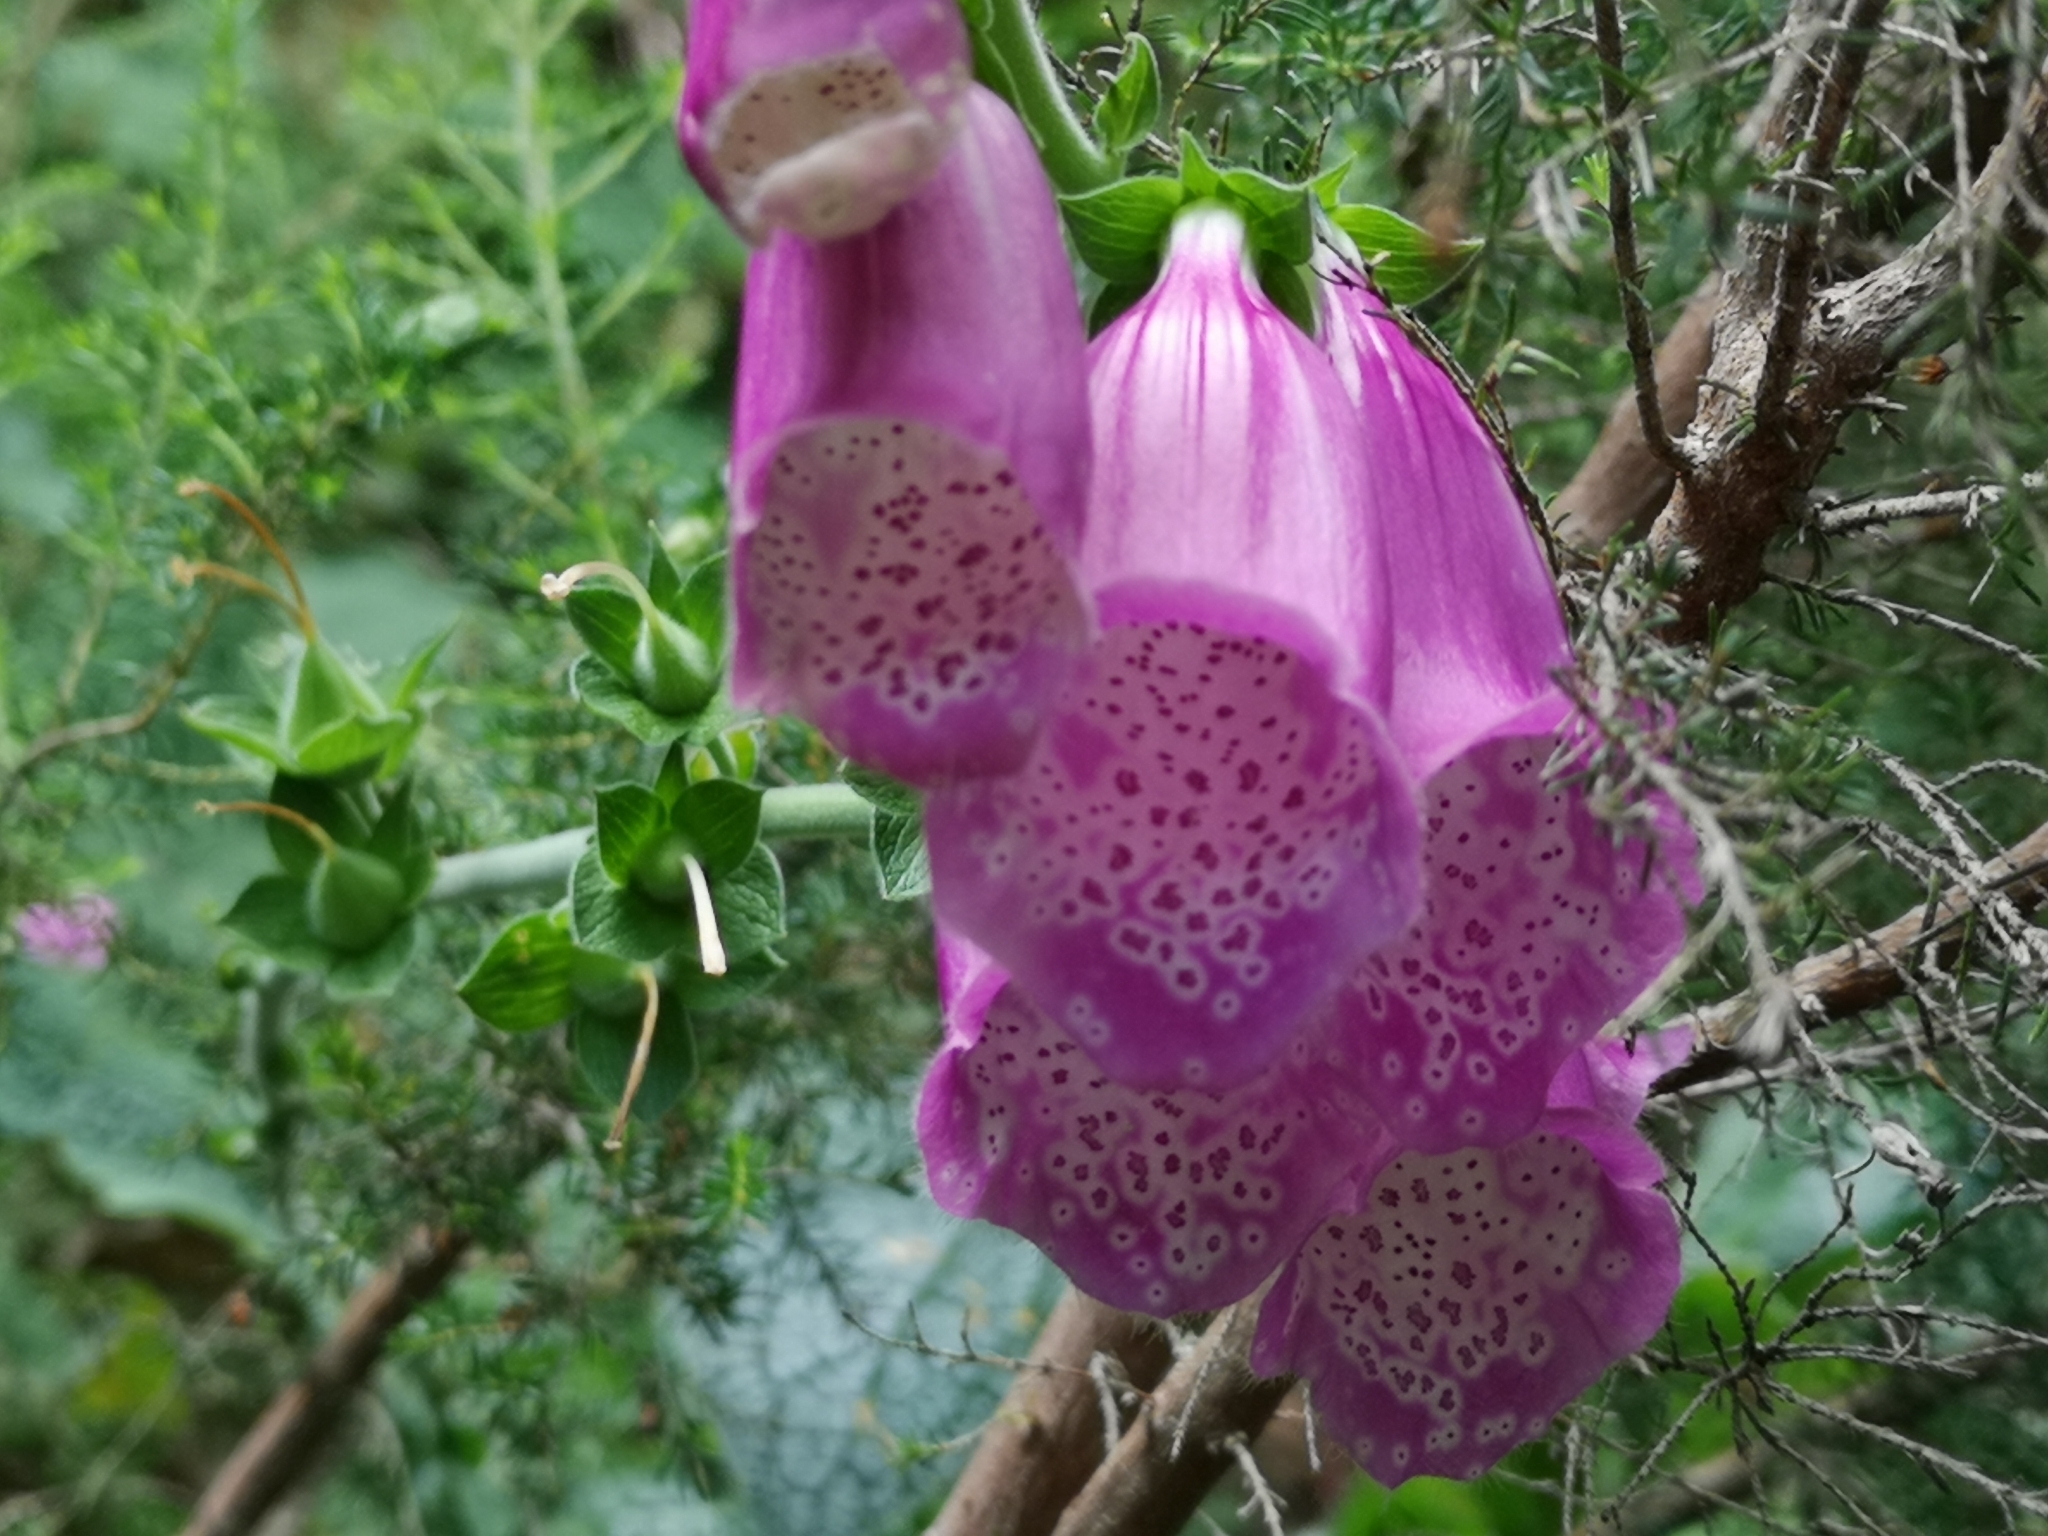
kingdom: Plantae
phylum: Tracheophyta
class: Magnoliopsida
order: Lamiales
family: Plantaginaceae
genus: Digitalis
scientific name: Digitalis purpurea
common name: Foxglove
